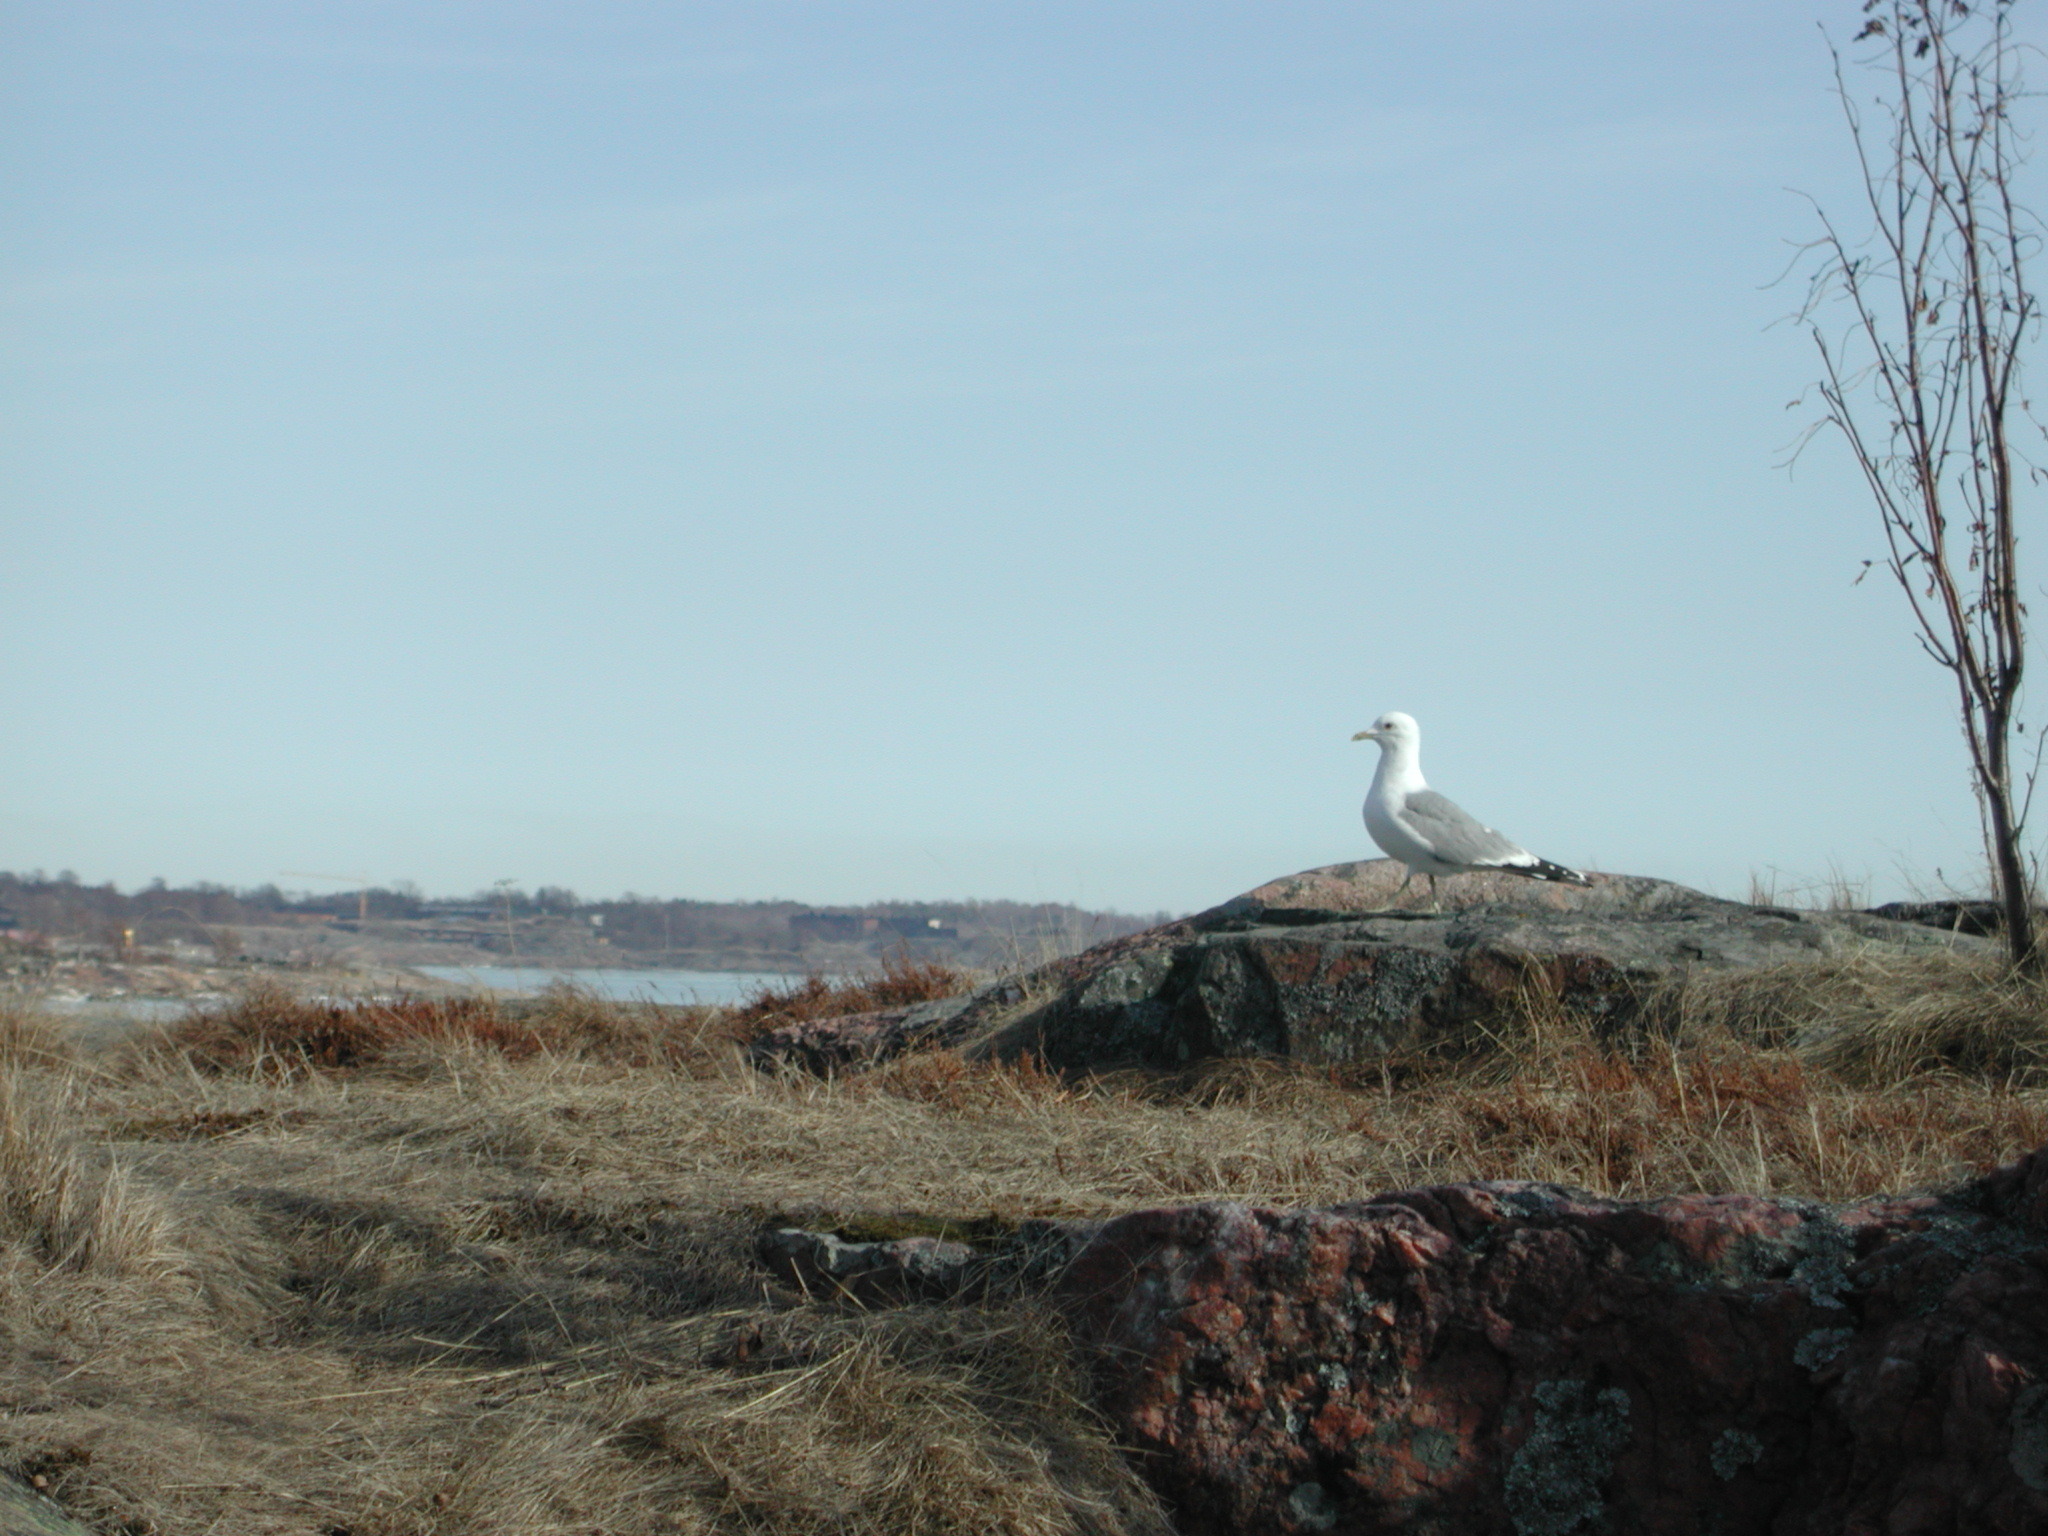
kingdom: Animalia
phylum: Chordata
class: Aves
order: Charadriiformes
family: Laridae
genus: Larus
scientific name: Larus canus
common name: Mew gull
